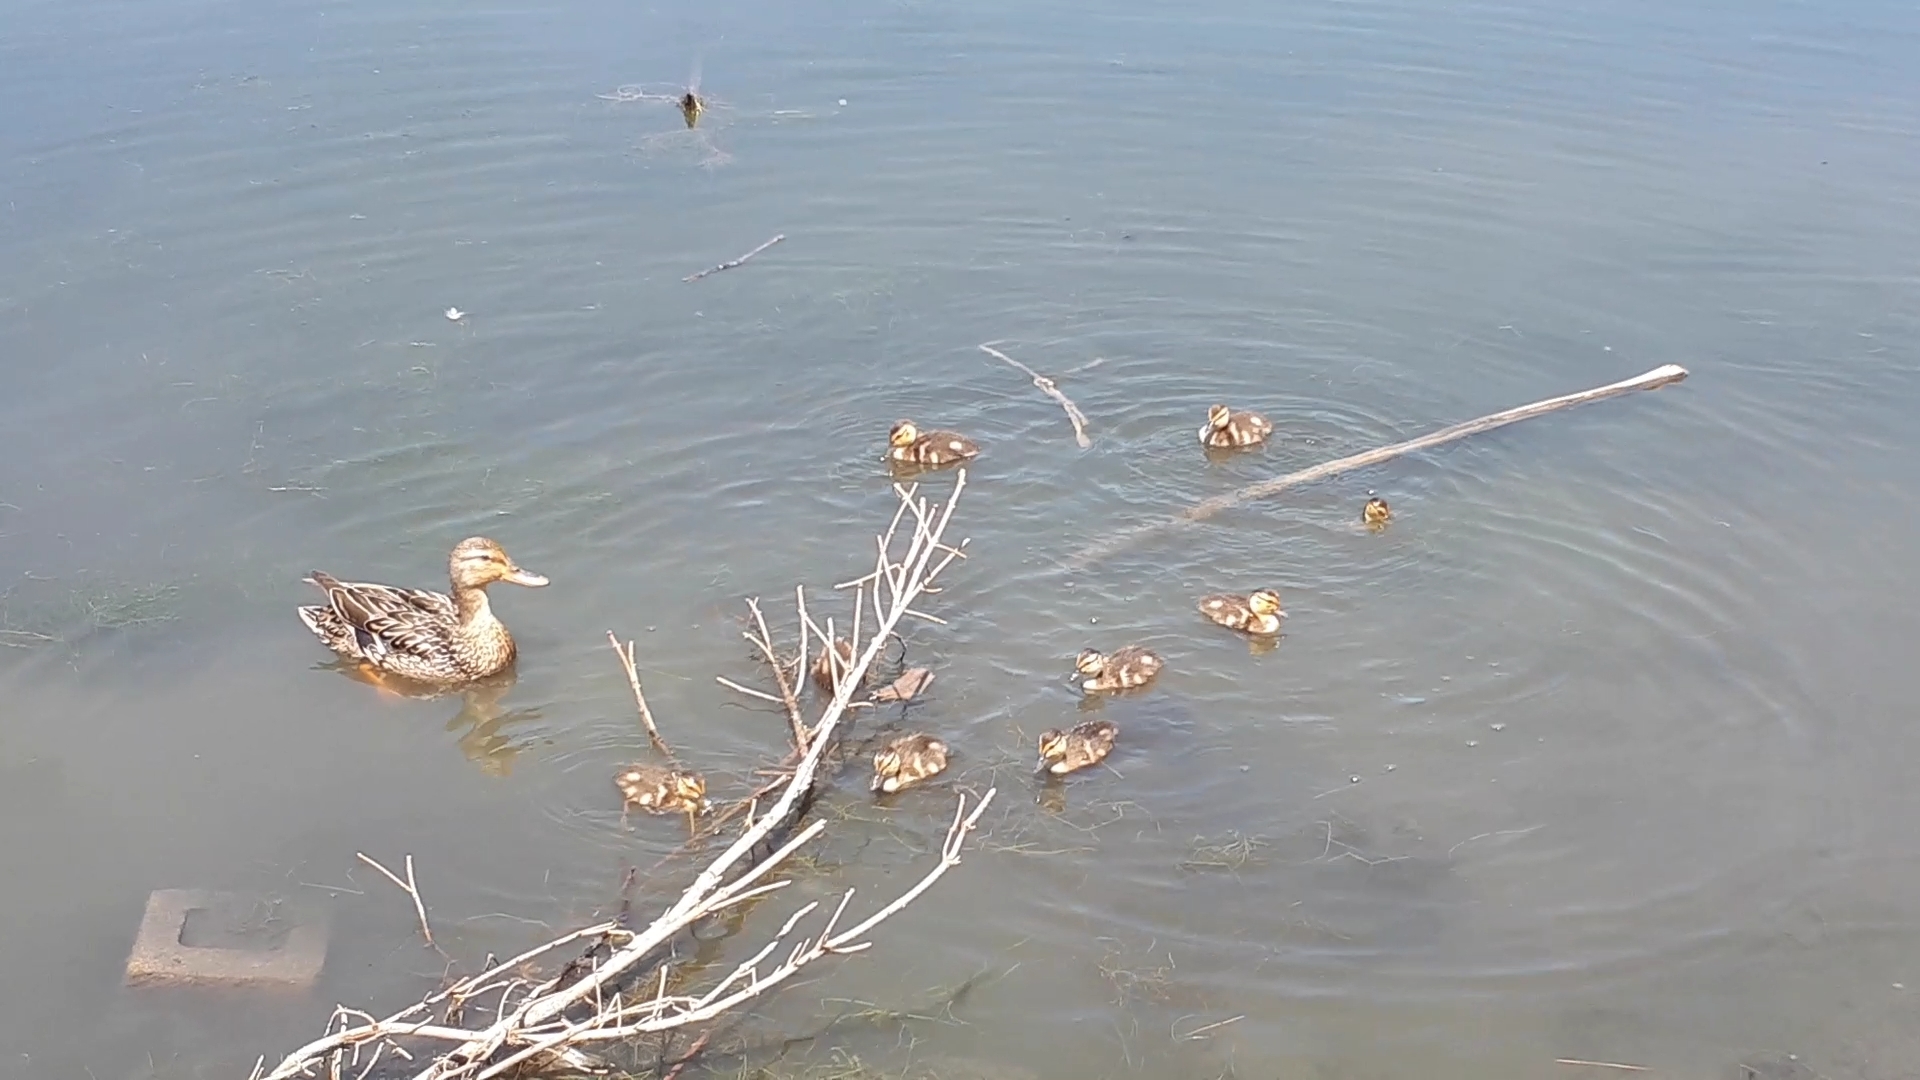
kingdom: Animalia
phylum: Chordata
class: Aves
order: Anseriformes
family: Anatidae
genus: Anas
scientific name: Anas platyrhynchos
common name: Mallard
